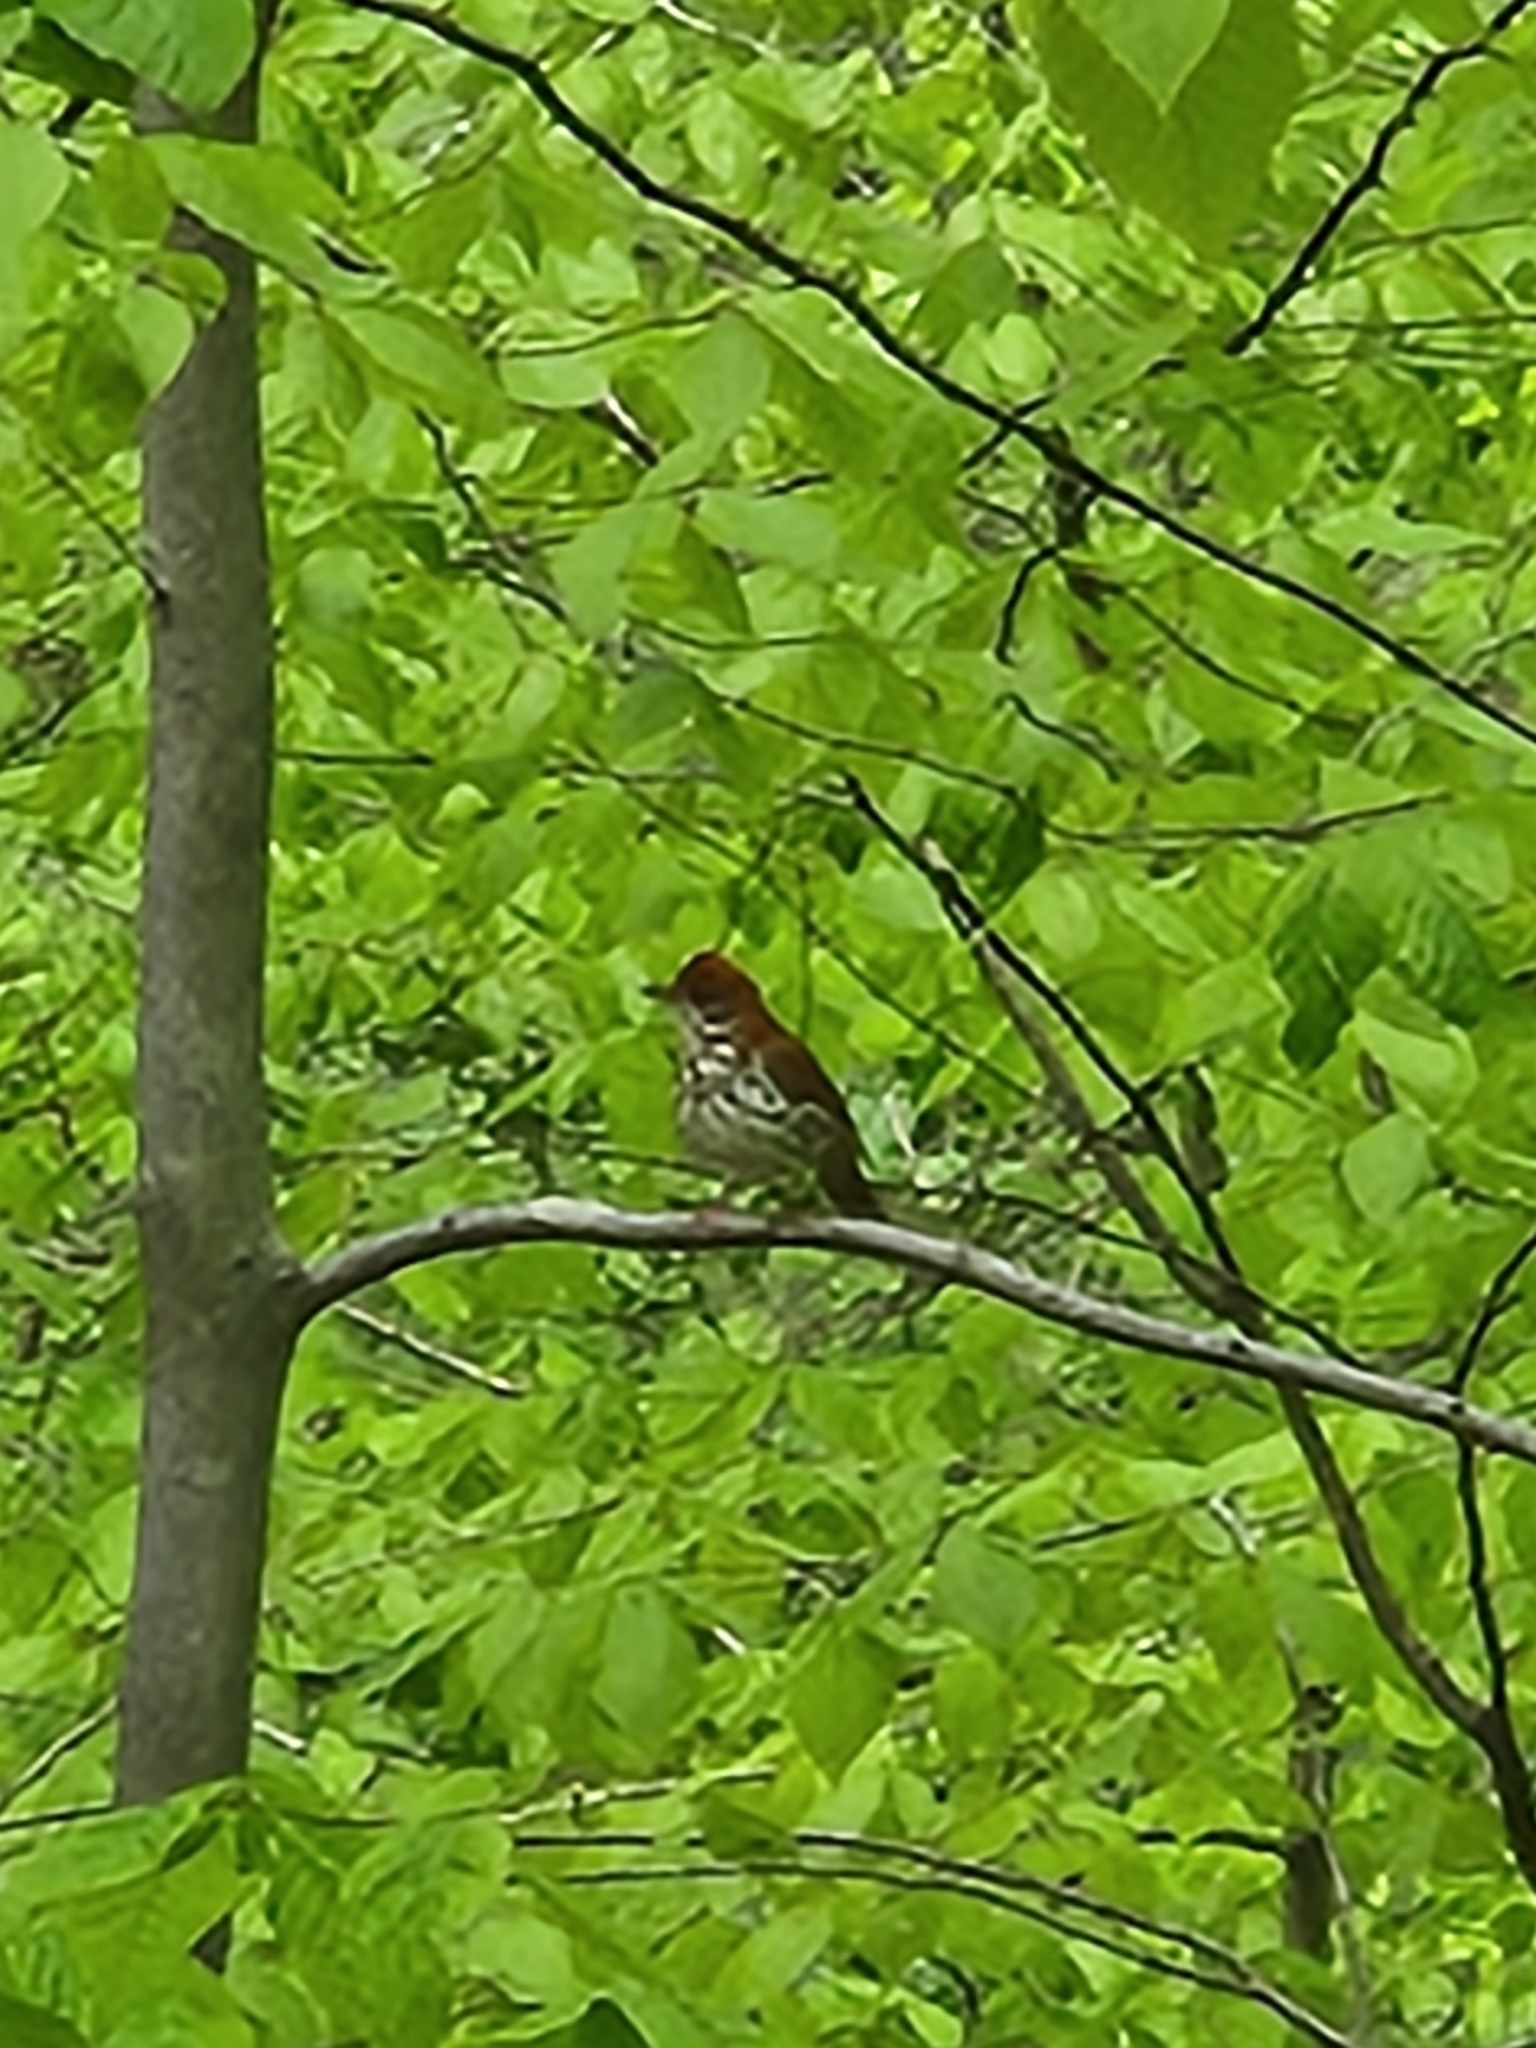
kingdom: Animalia
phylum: Chordata
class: Aves
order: Passeriformes
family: Turdidae
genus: Hylocichla
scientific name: Hylocichla mustelina
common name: Wood thrush
